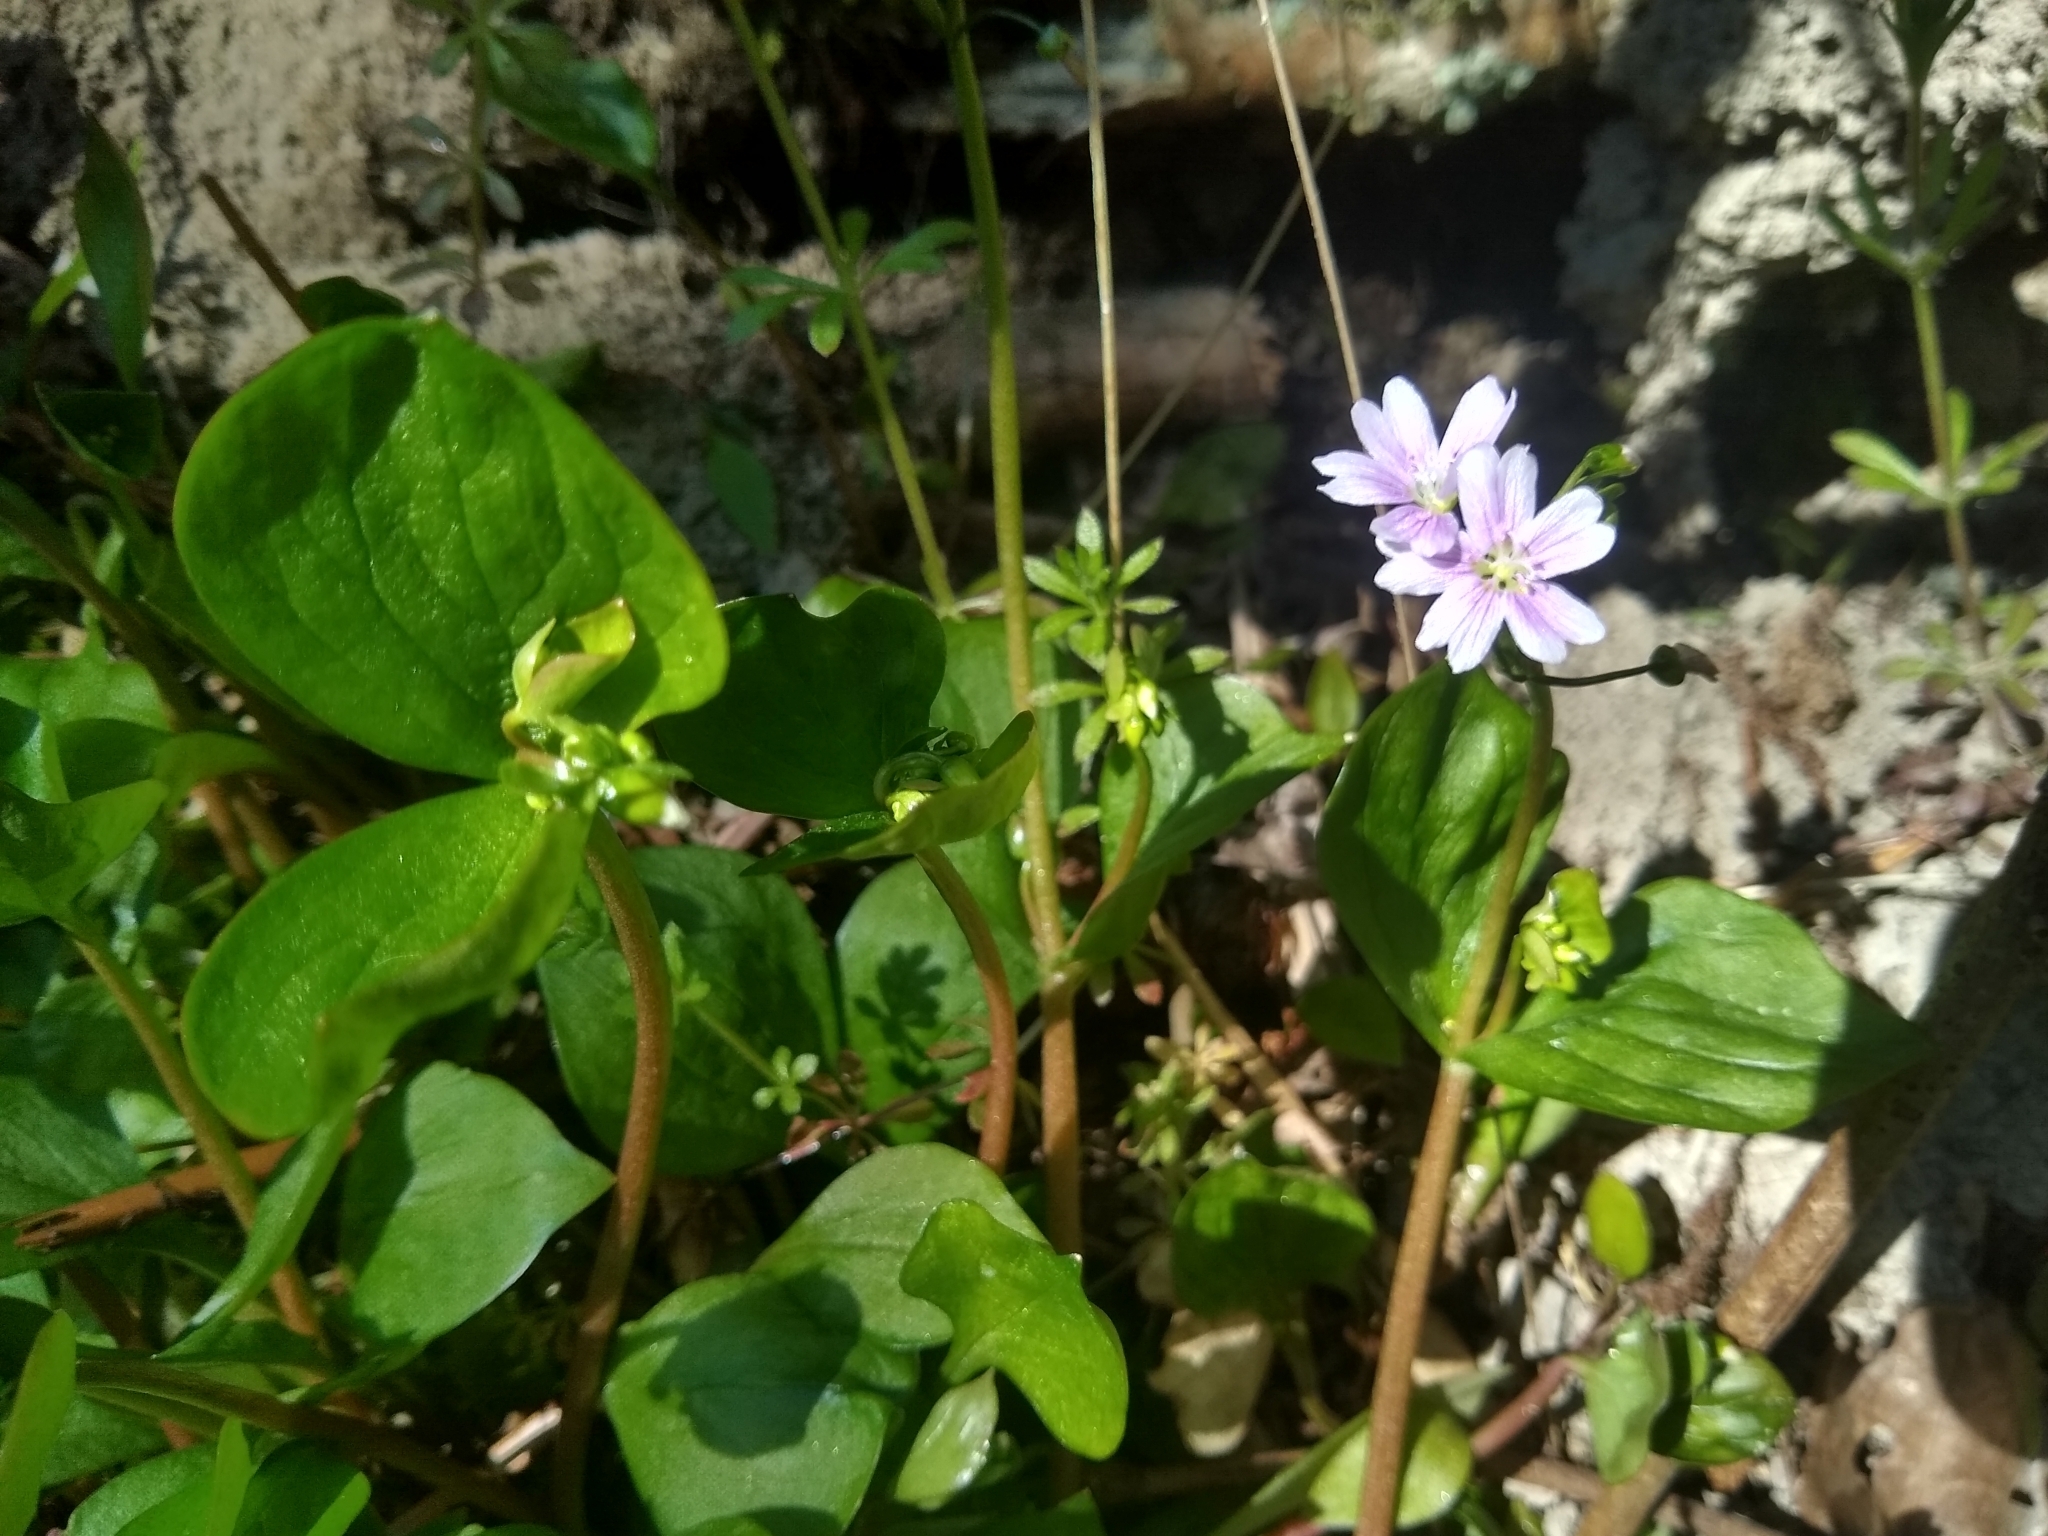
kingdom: Plantae
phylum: Tracheophyta
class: Magnoliopsida
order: Caryophyllales
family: Montiaceae
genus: Claytonia
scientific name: Claytonia sibirica
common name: Pink purslane
